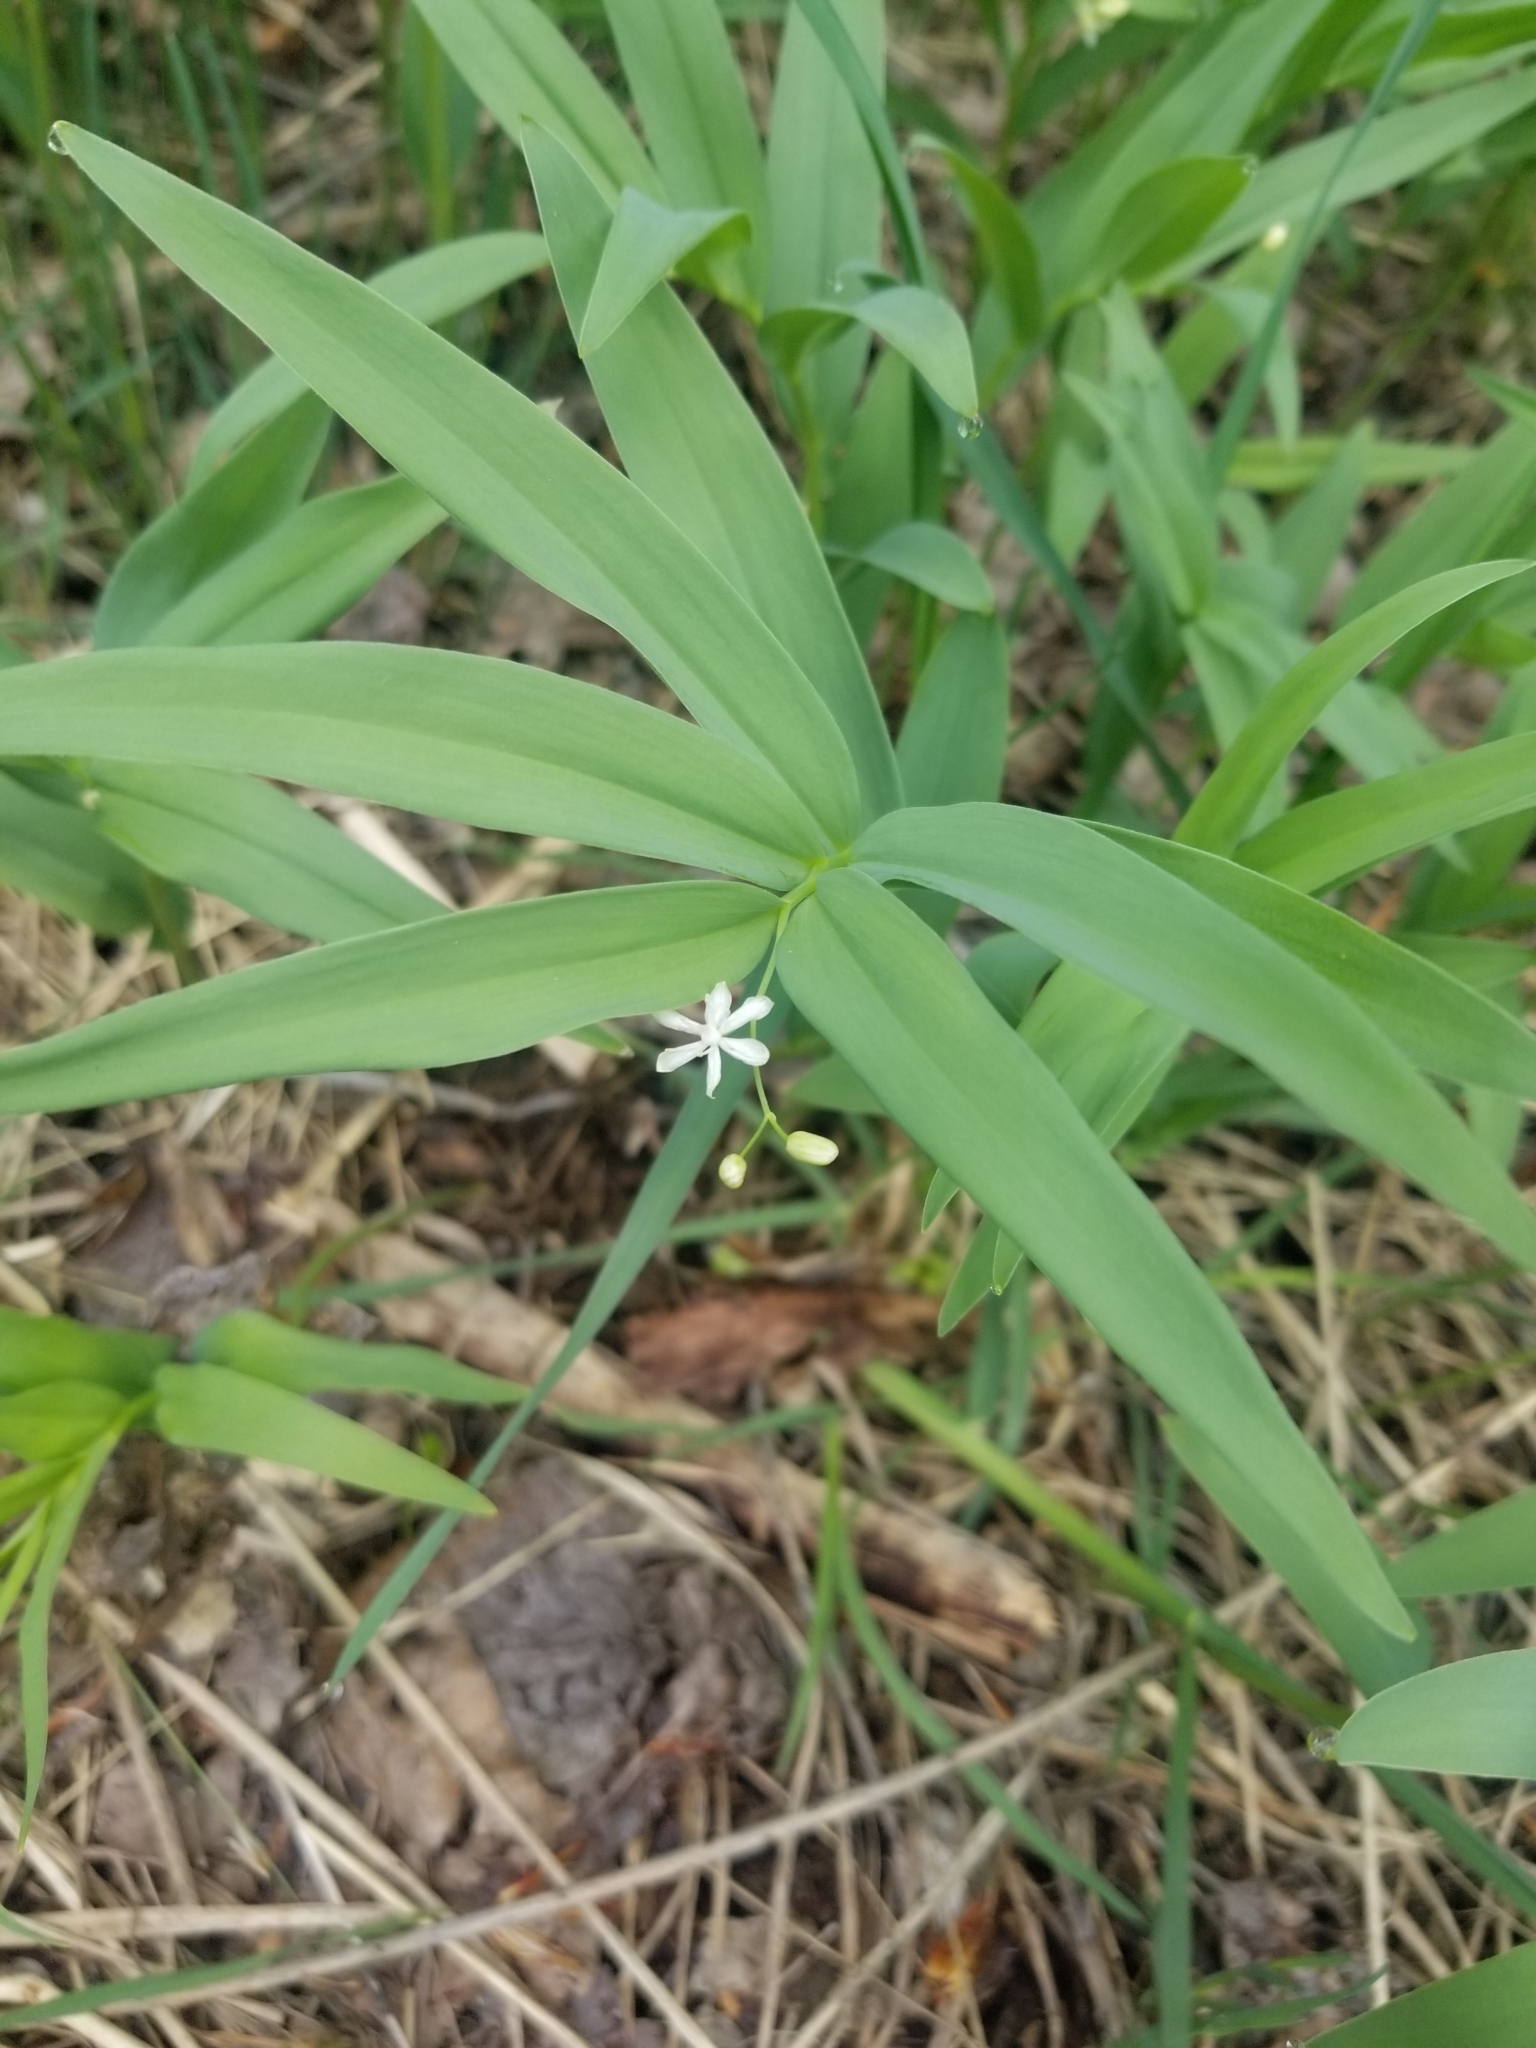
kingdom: Plantae
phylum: Tracheophyta
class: Liliopsida
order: Asparagales
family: Asparagaceae
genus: Maianthemum
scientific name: Maianthemum stellatum
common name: Little false solomon's seal
